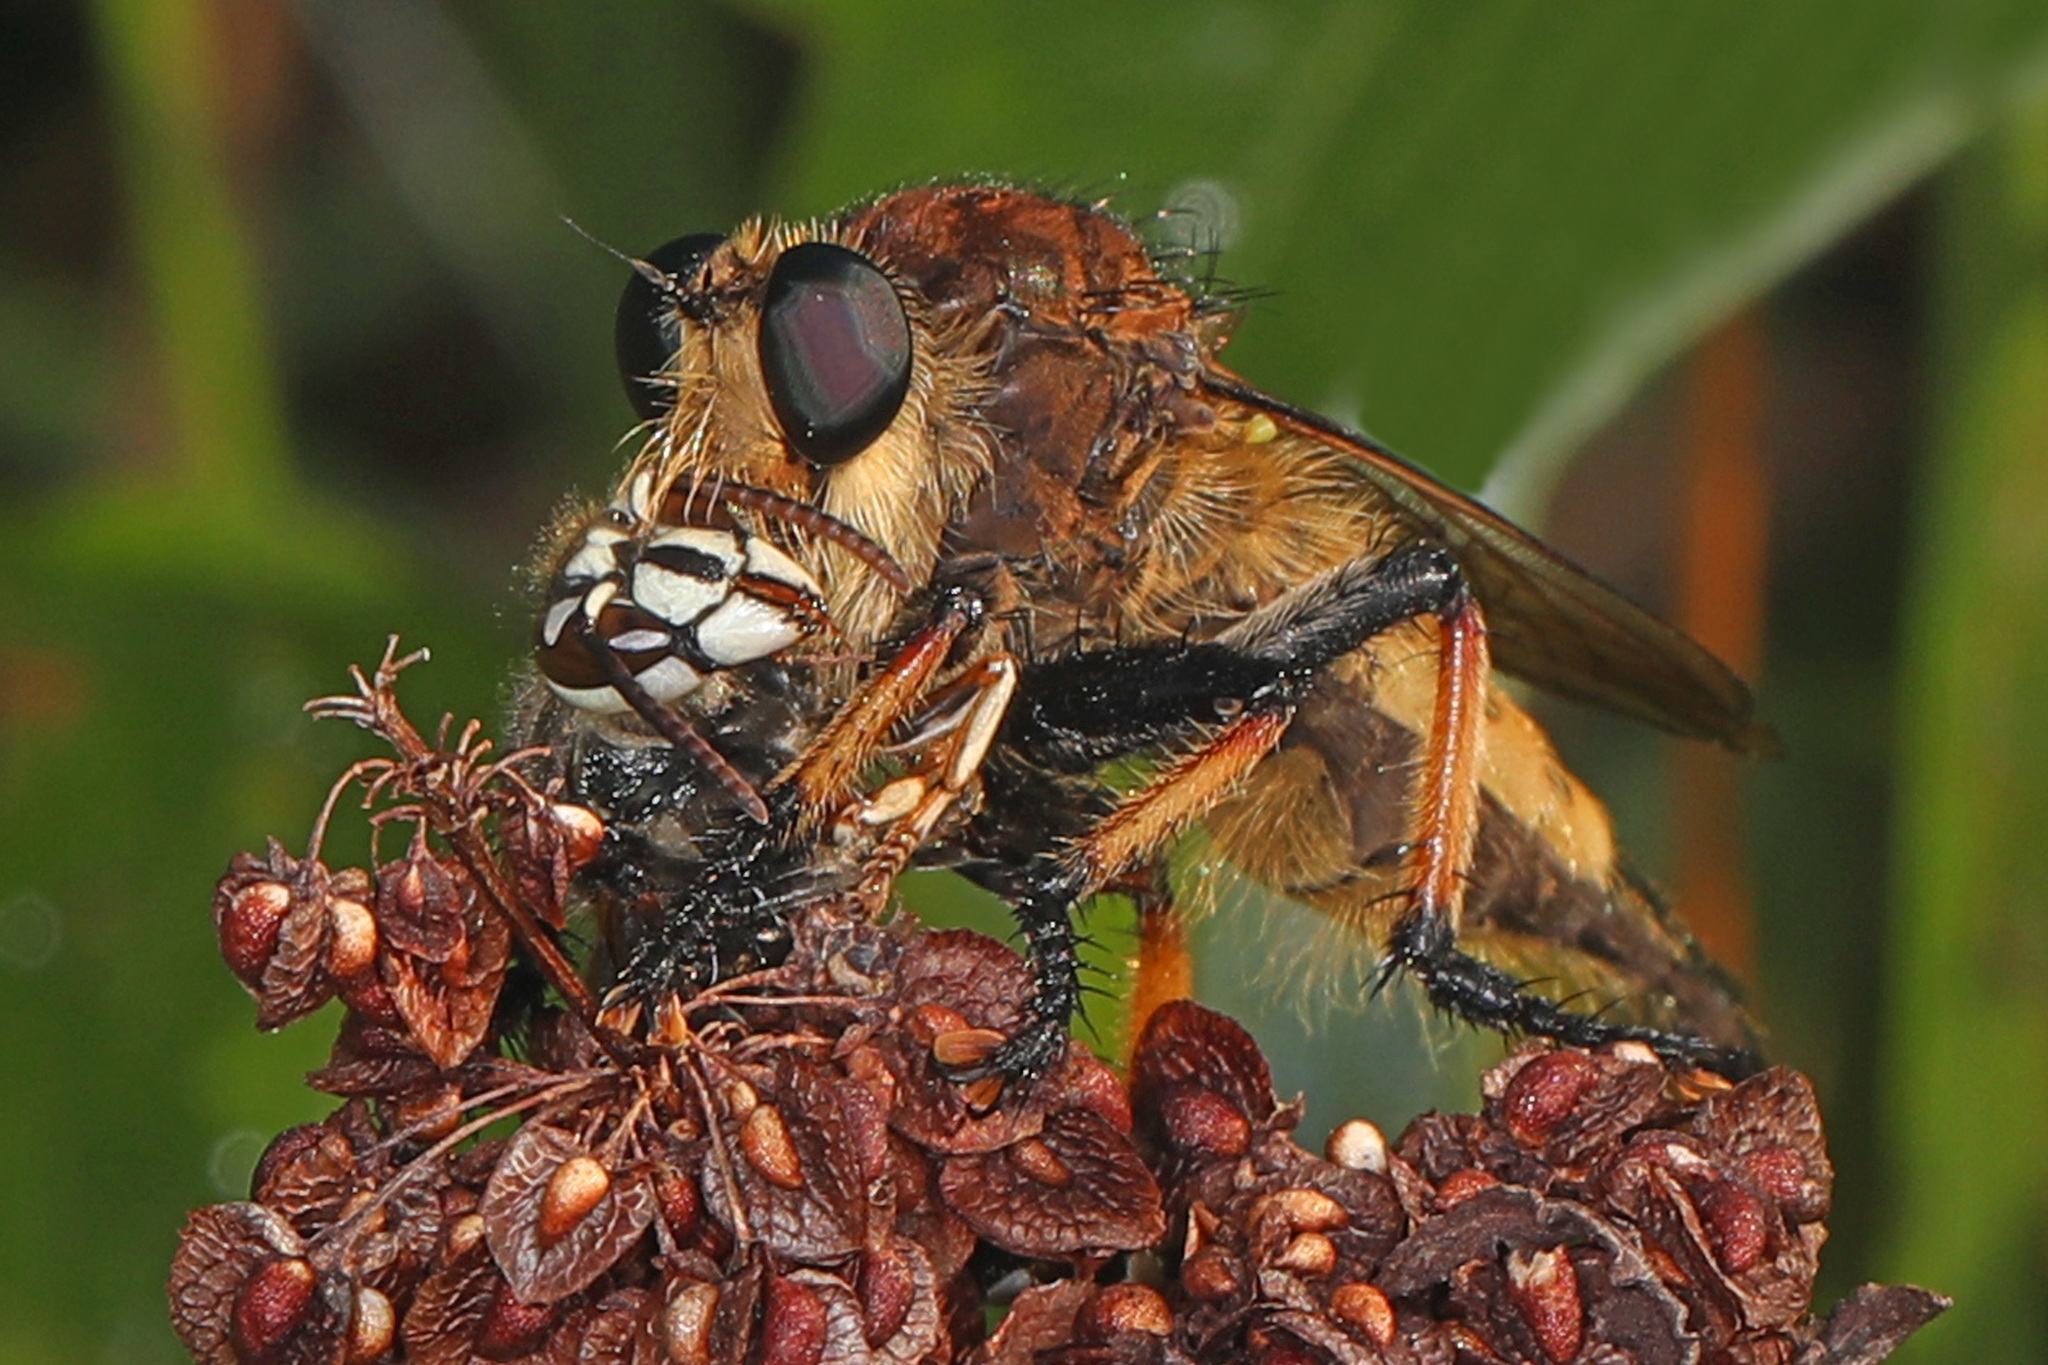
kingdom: Animalia
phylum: Arthropoda
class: Insecta
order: Diptera
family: Asilidae
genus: Promachus
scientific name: Promachus rufipes
